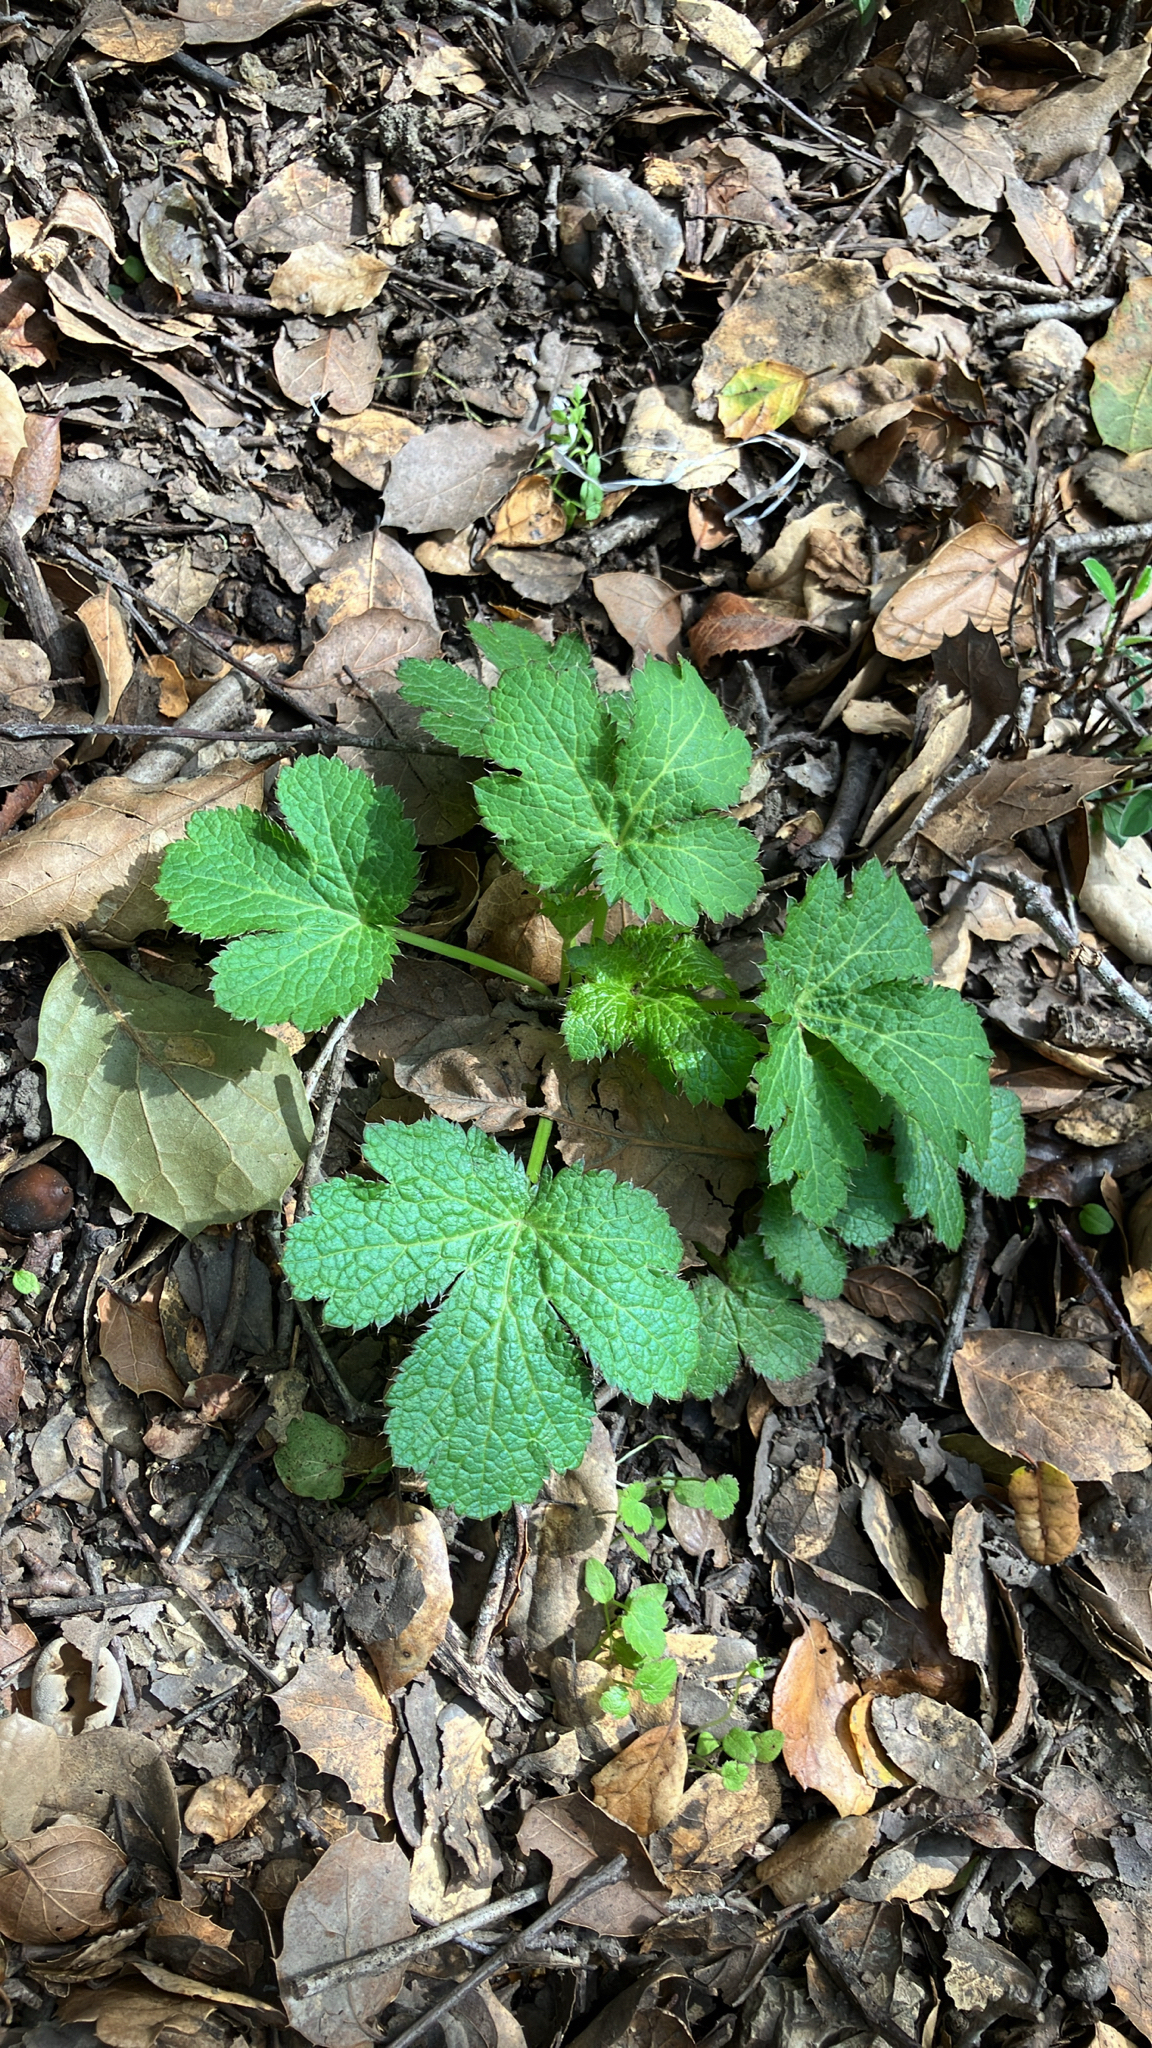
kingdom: Plantae
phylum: Tracheophyta
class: Magnoliopsida
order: Apiales
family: Apiaceae
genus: Sanicula
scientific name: Sanicula crassicaulis
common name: Western snakeroot
